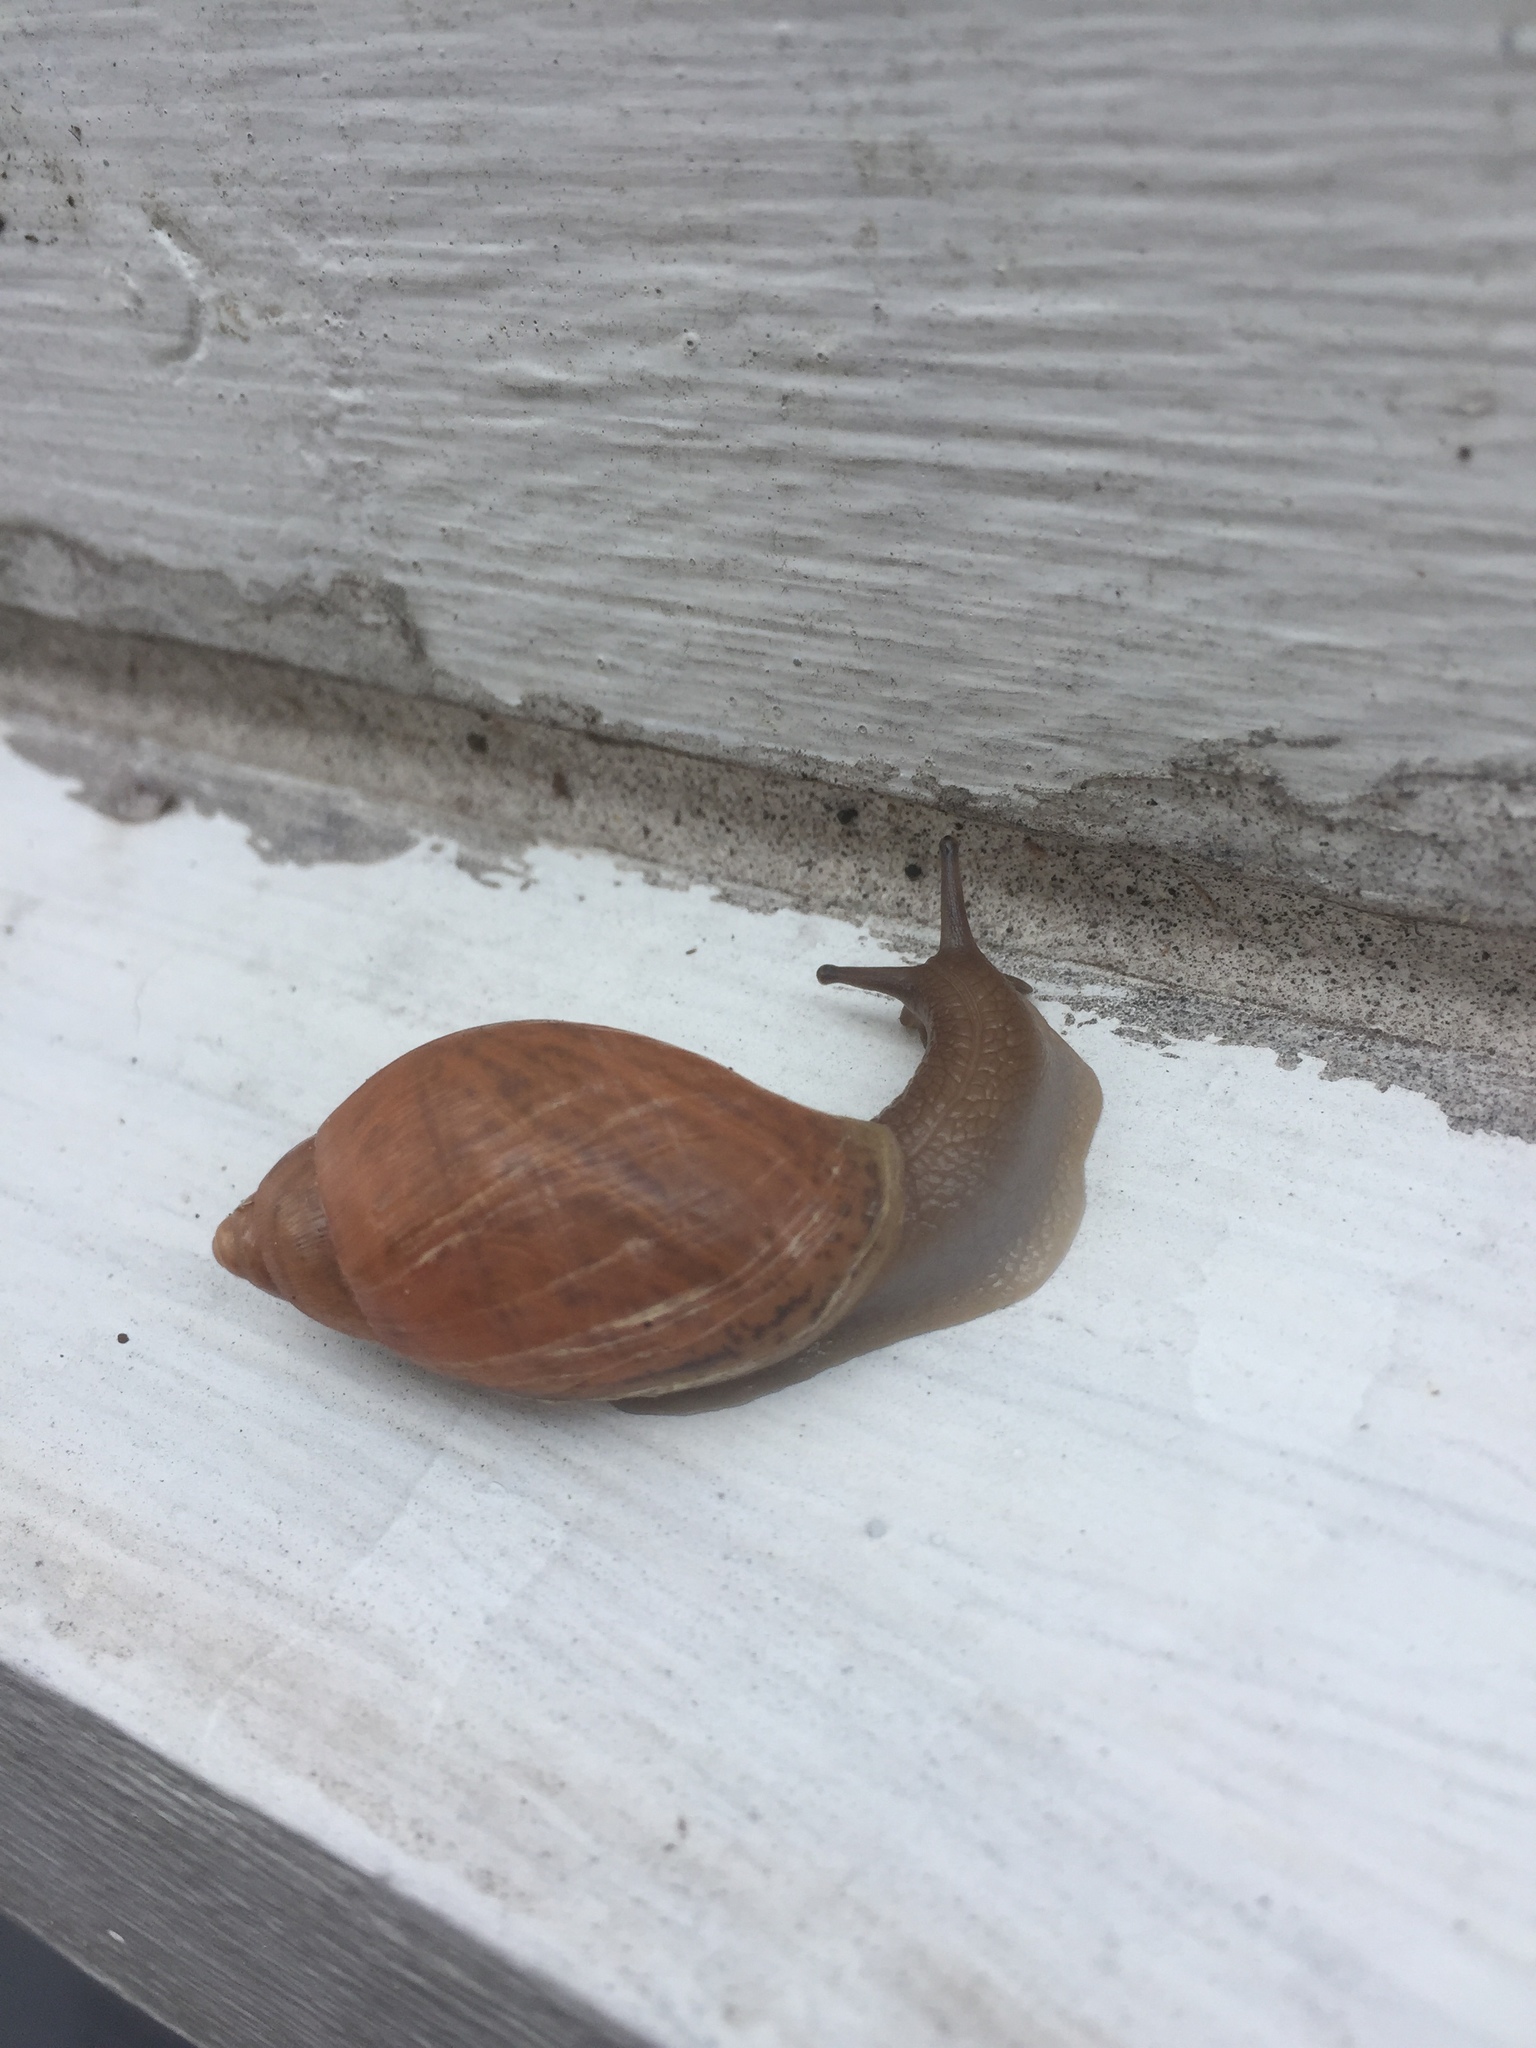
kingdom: Animalia
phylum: Mollusca
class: Gastropoda
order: Stylommatophora
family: Spiraxidae
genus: Euglandina
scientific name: Euglandina rosea
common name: Rosy wolfsnail
